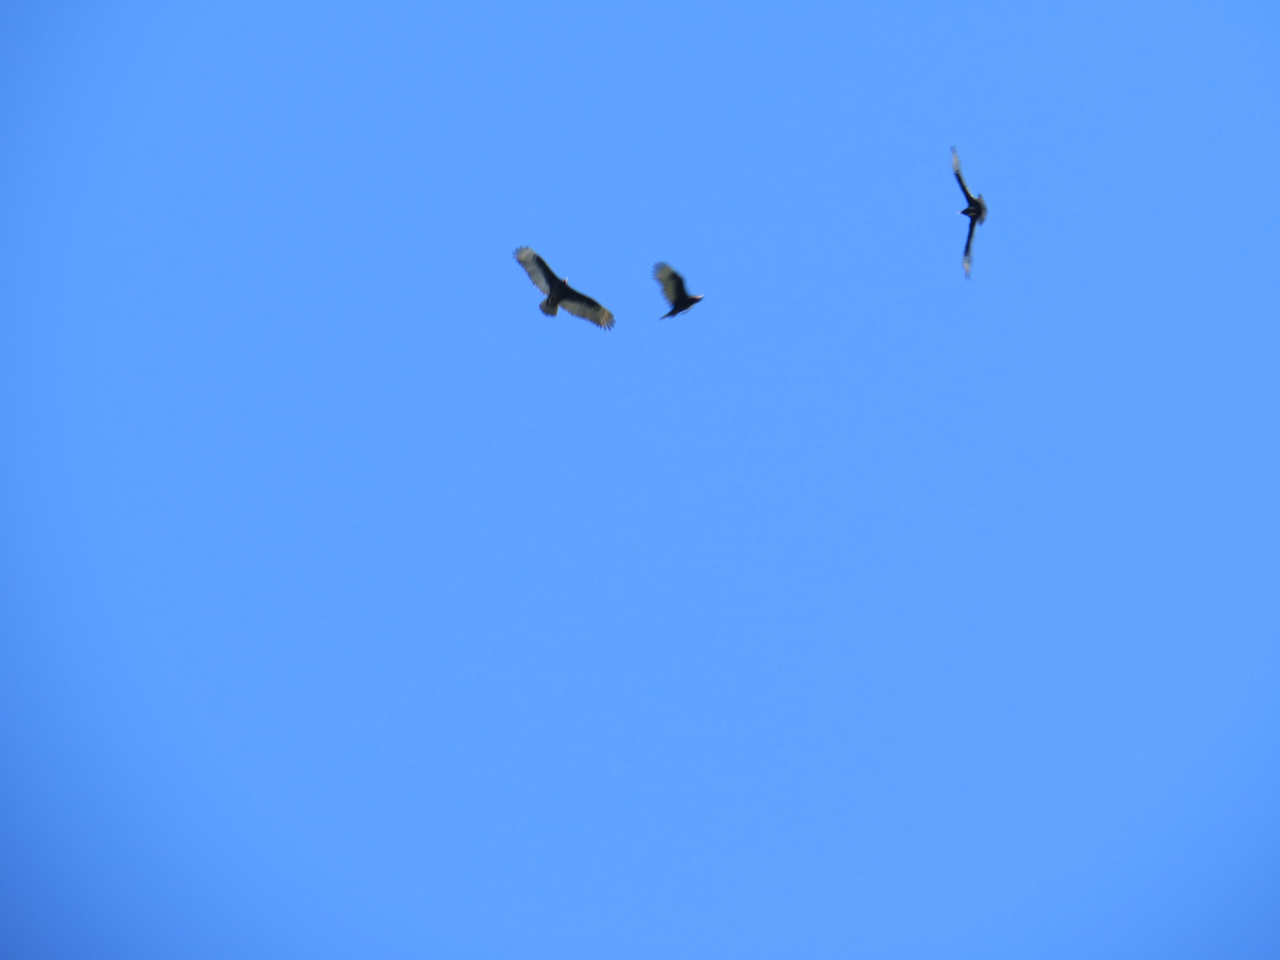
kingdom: Animalia
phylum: Chordata
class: Aves
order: Accipitriformes
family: Cathartidae
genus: Cathartes
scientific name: Cathartes aura
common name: Turkey vulture
